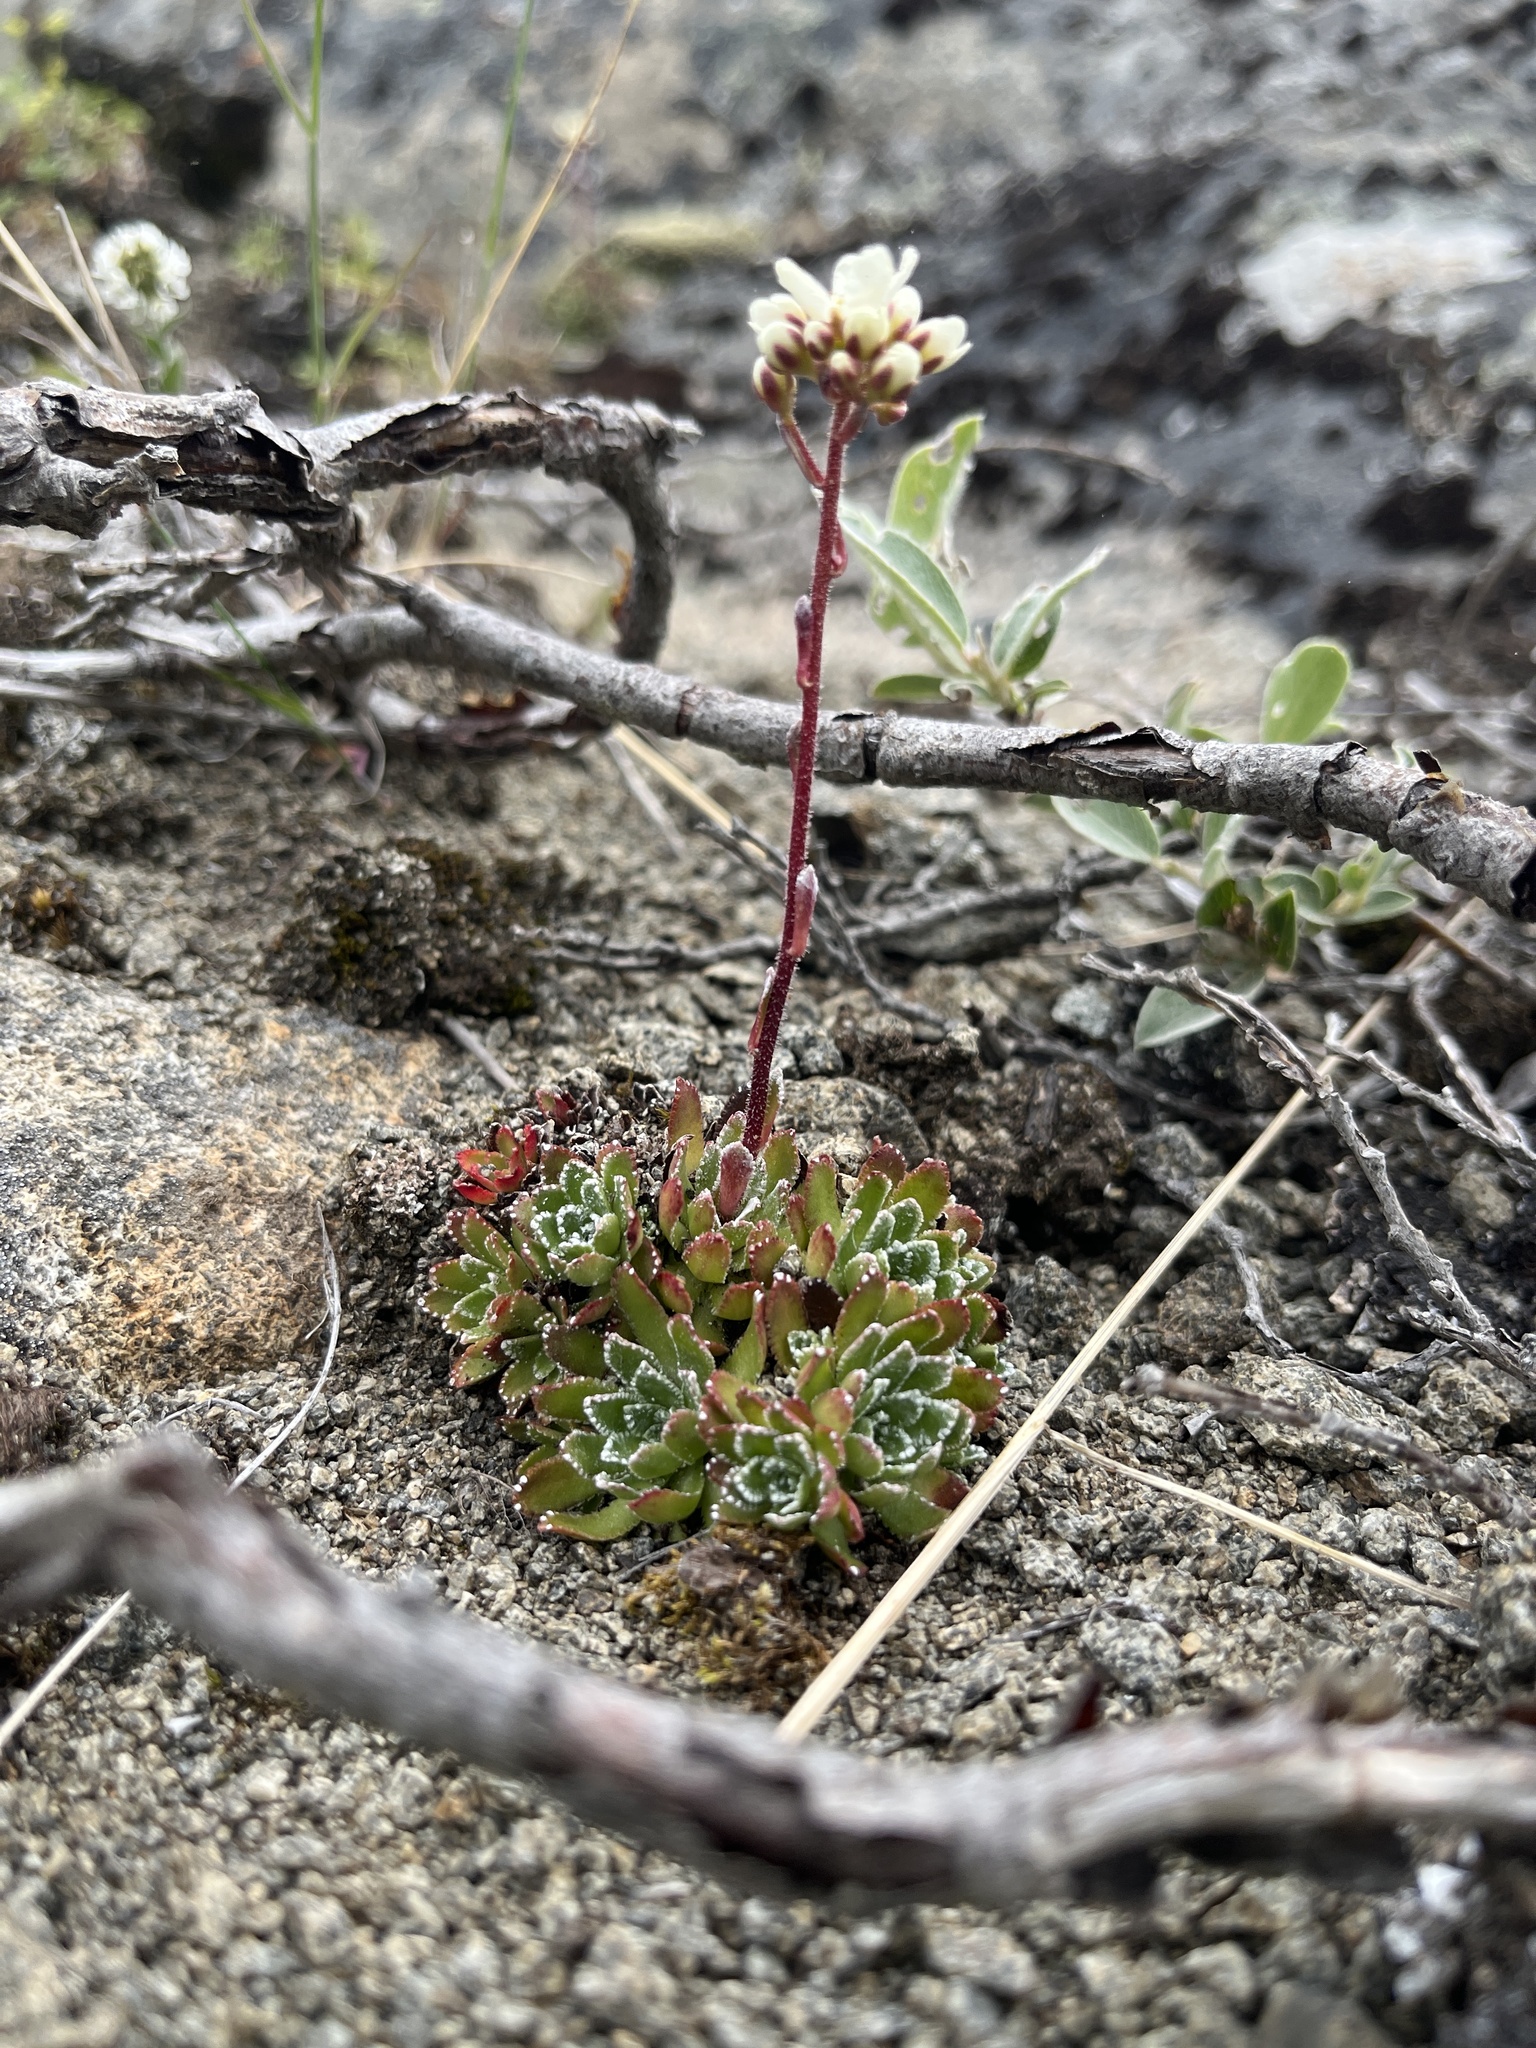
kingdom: Plantae
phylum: Tracheophyta
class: Magnoliopsida
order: Saxifragales
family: Saxifragaceae
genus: Saxifraga
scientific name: Saxifraga paniculata
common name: Livelong saxifrage
